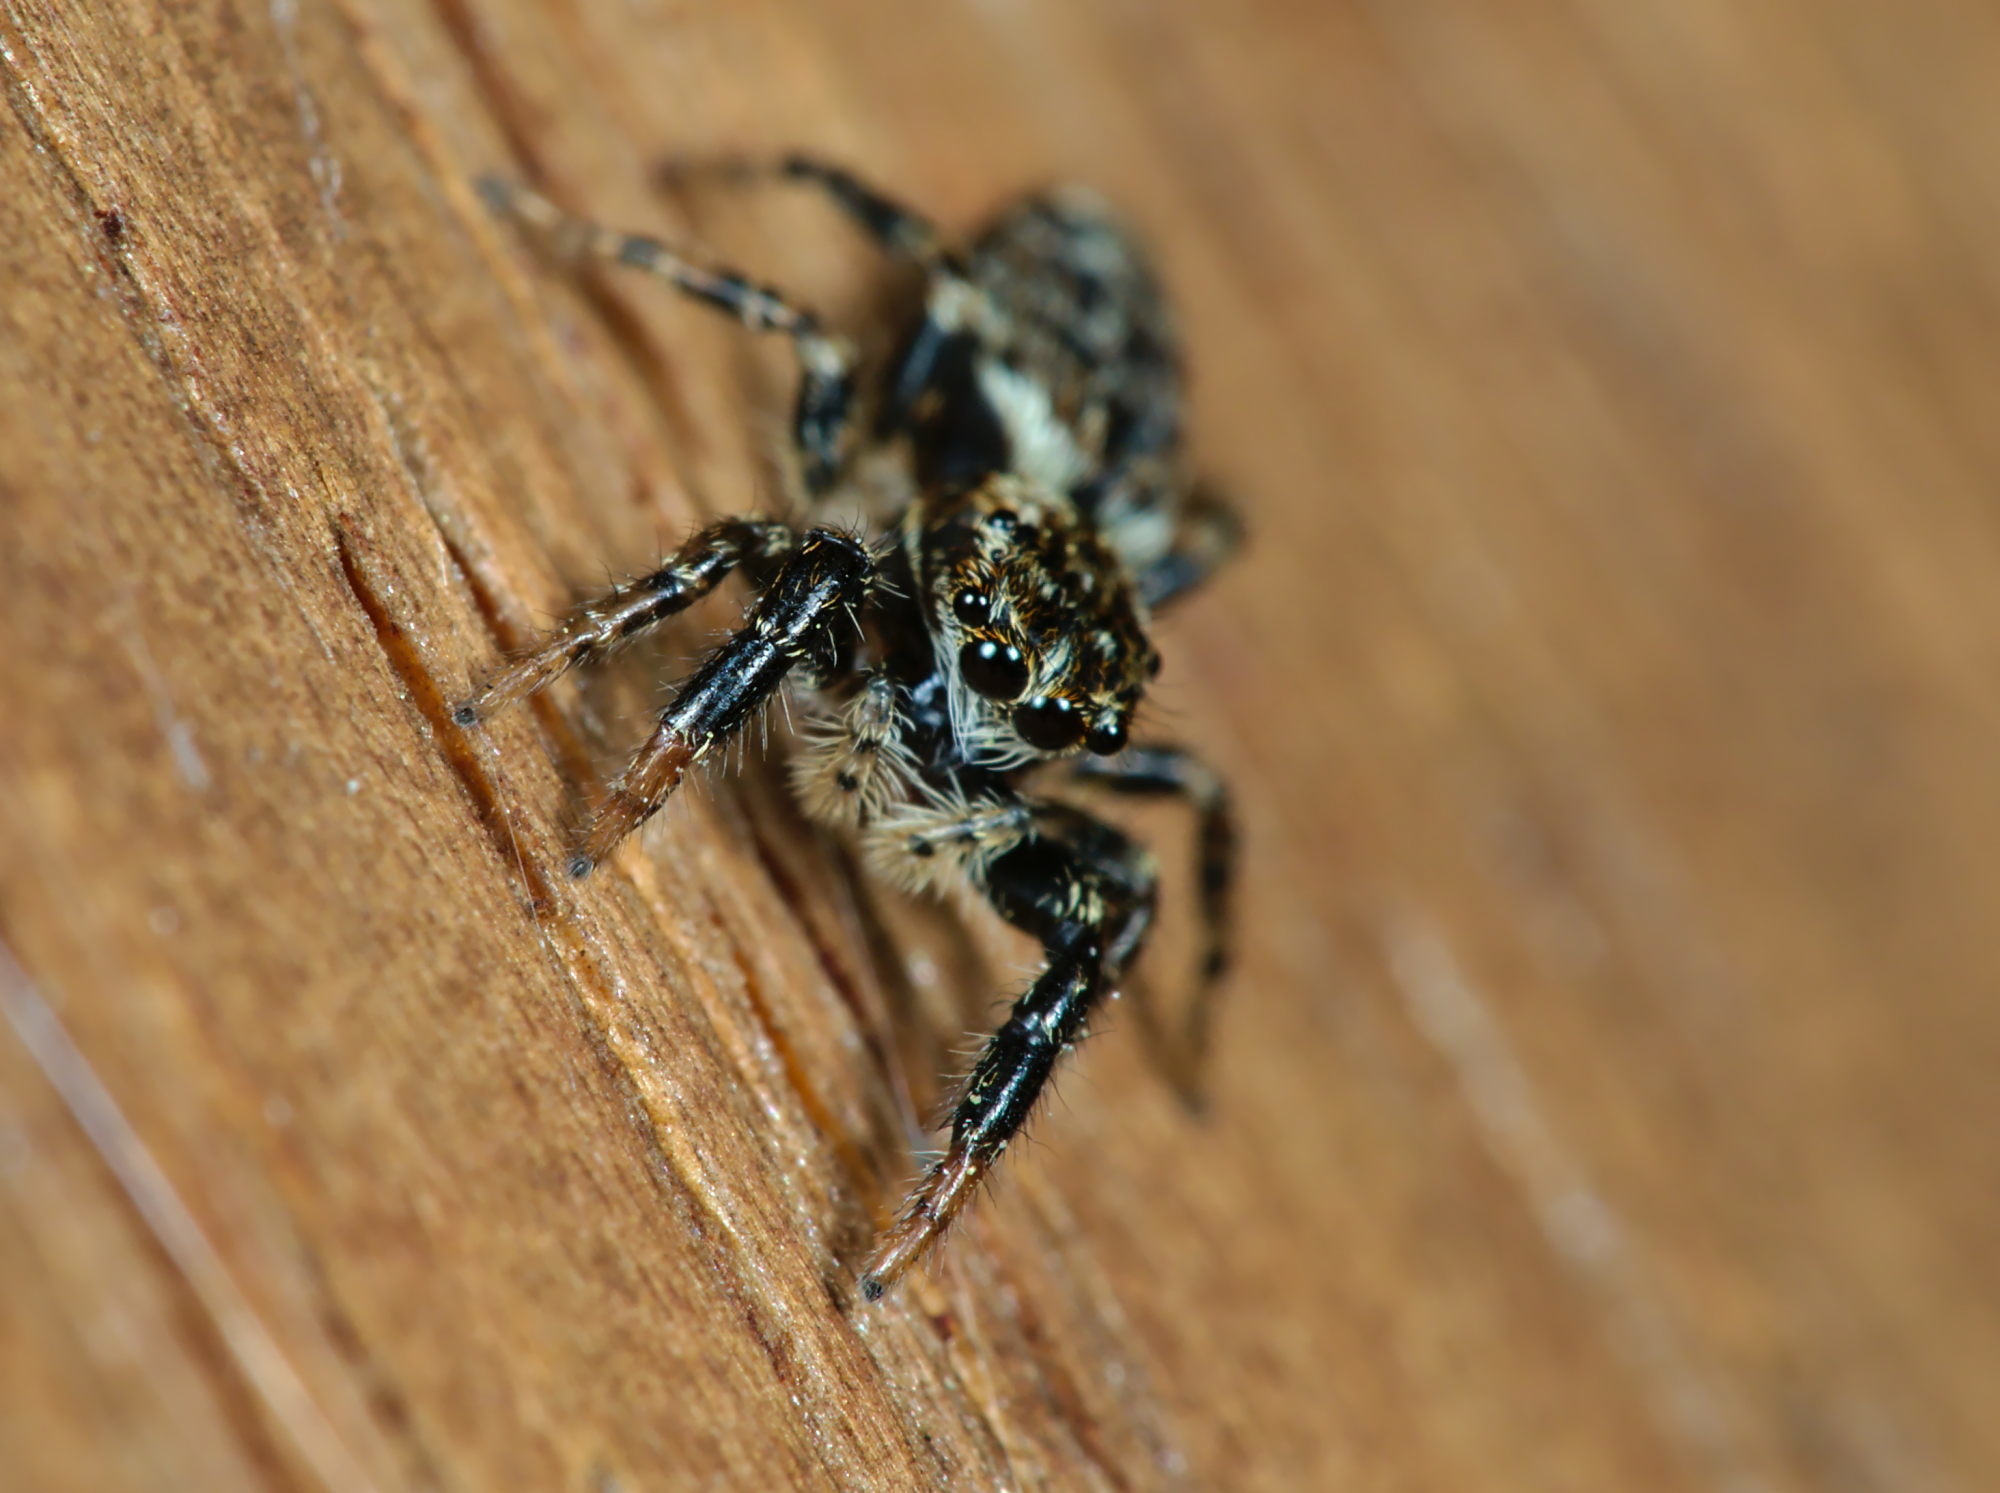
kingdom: Animalia
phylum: Arthropoda
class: Arachnida
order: Araneae
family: Salticidae
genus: Marpissa
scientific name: Marpissa muscosa
